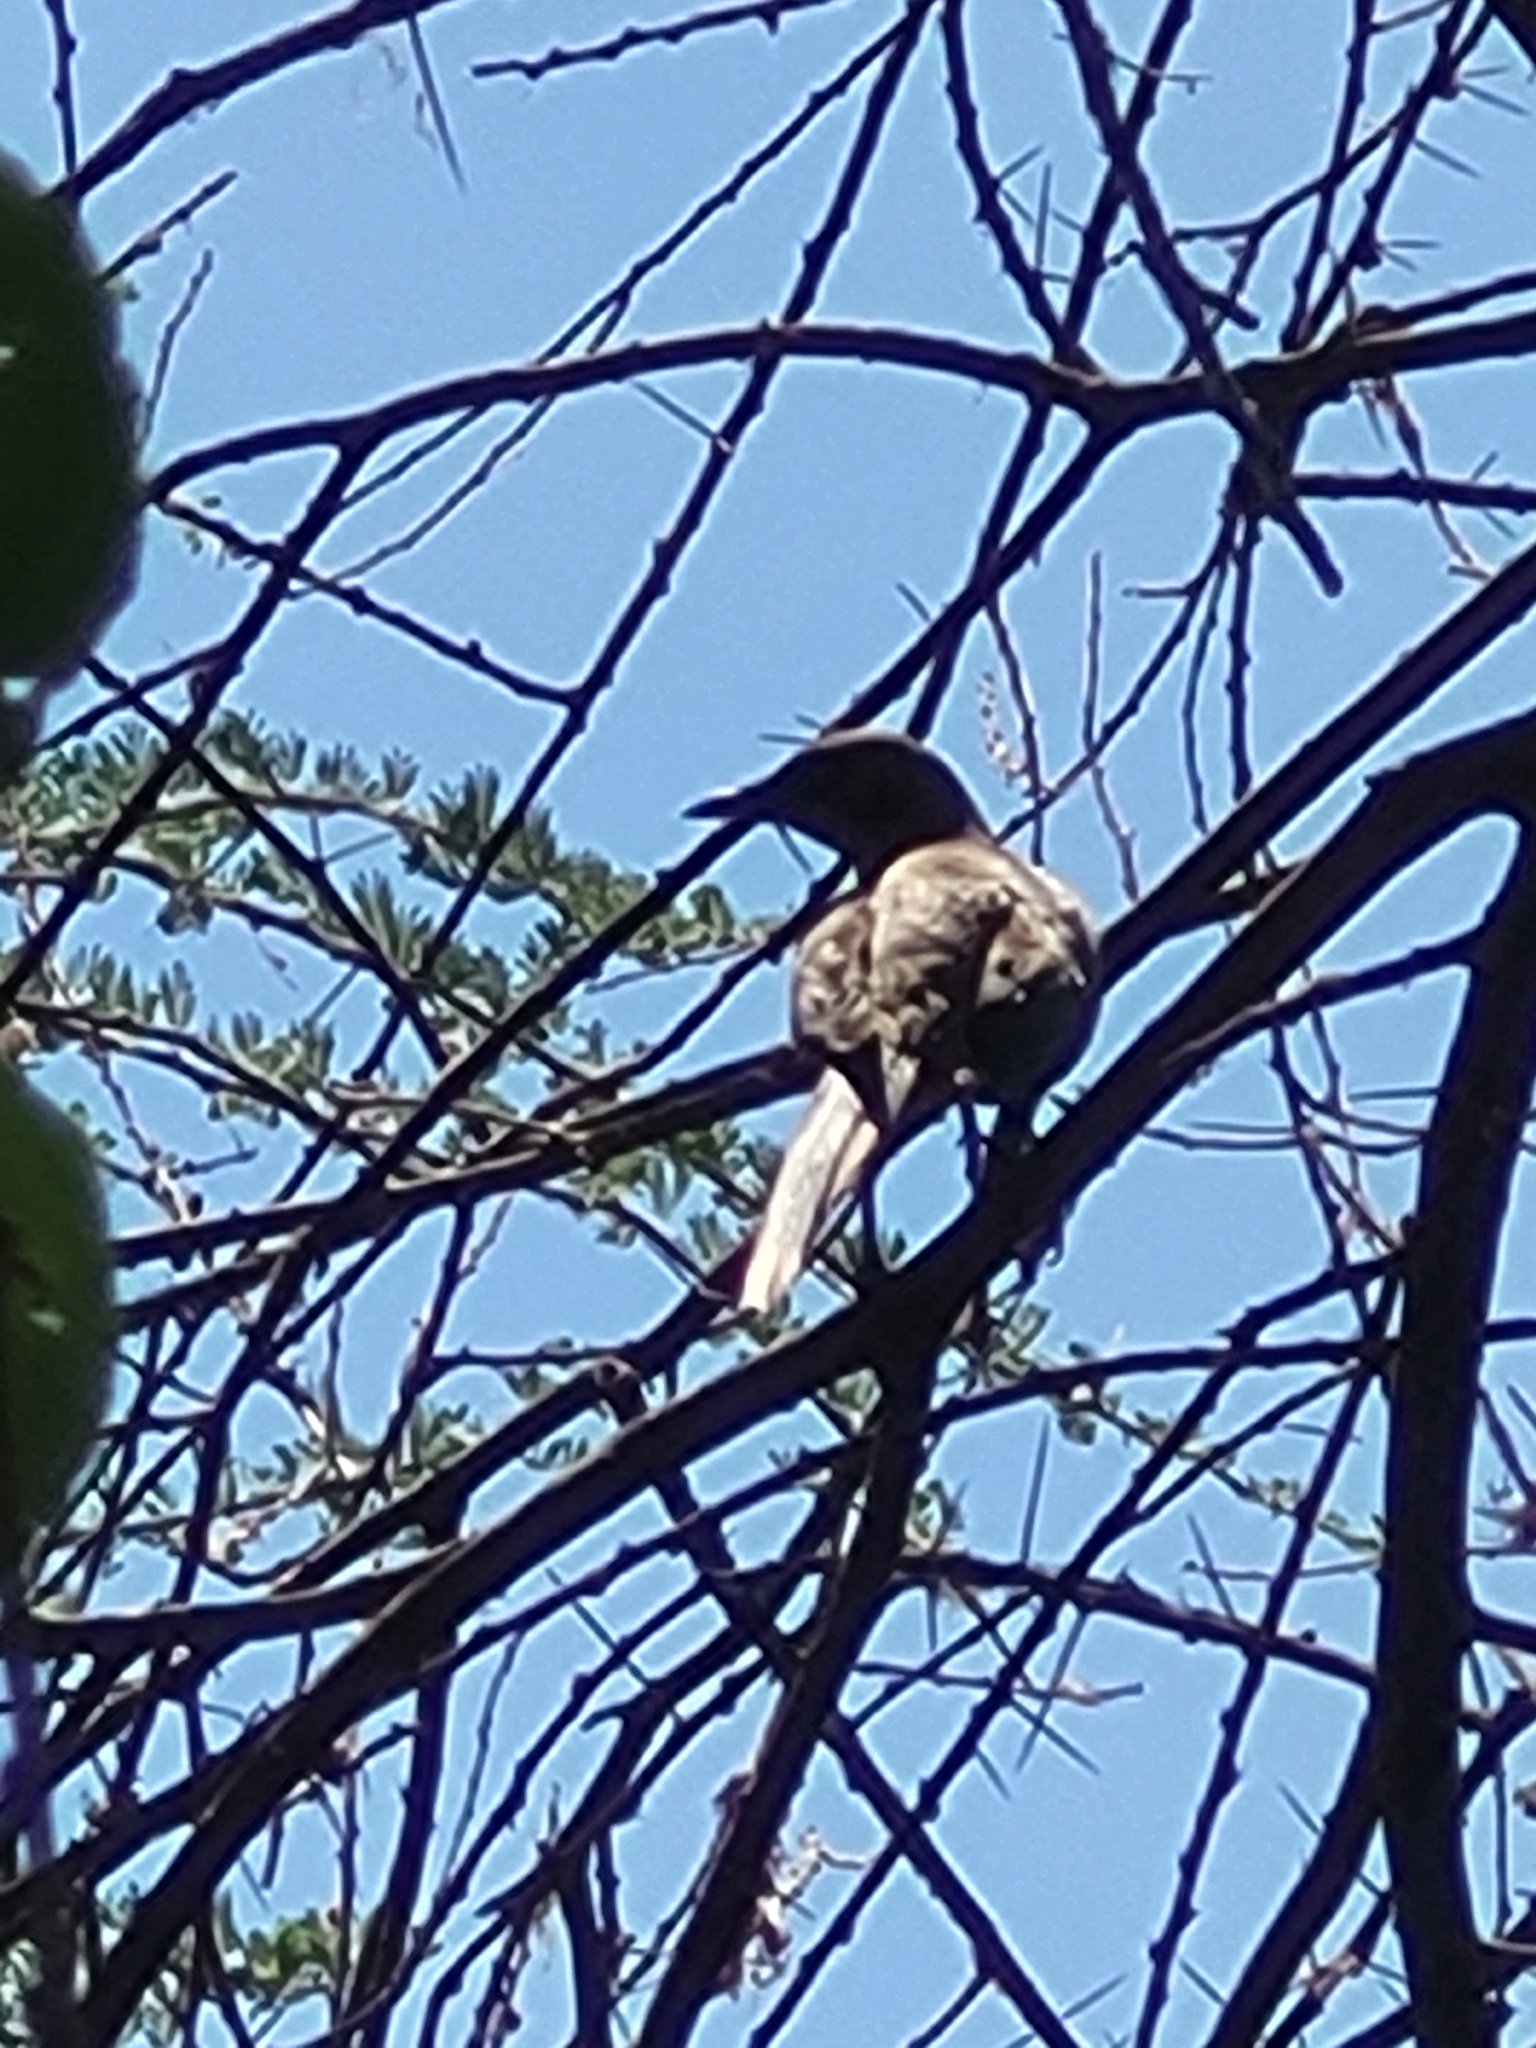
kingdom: Animalia
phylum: Chordata
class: Aves
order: Passeriformes
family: Sturnidae
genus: Lamprotornis
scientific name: Lamprotornis unicolor
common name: Ashy starling
